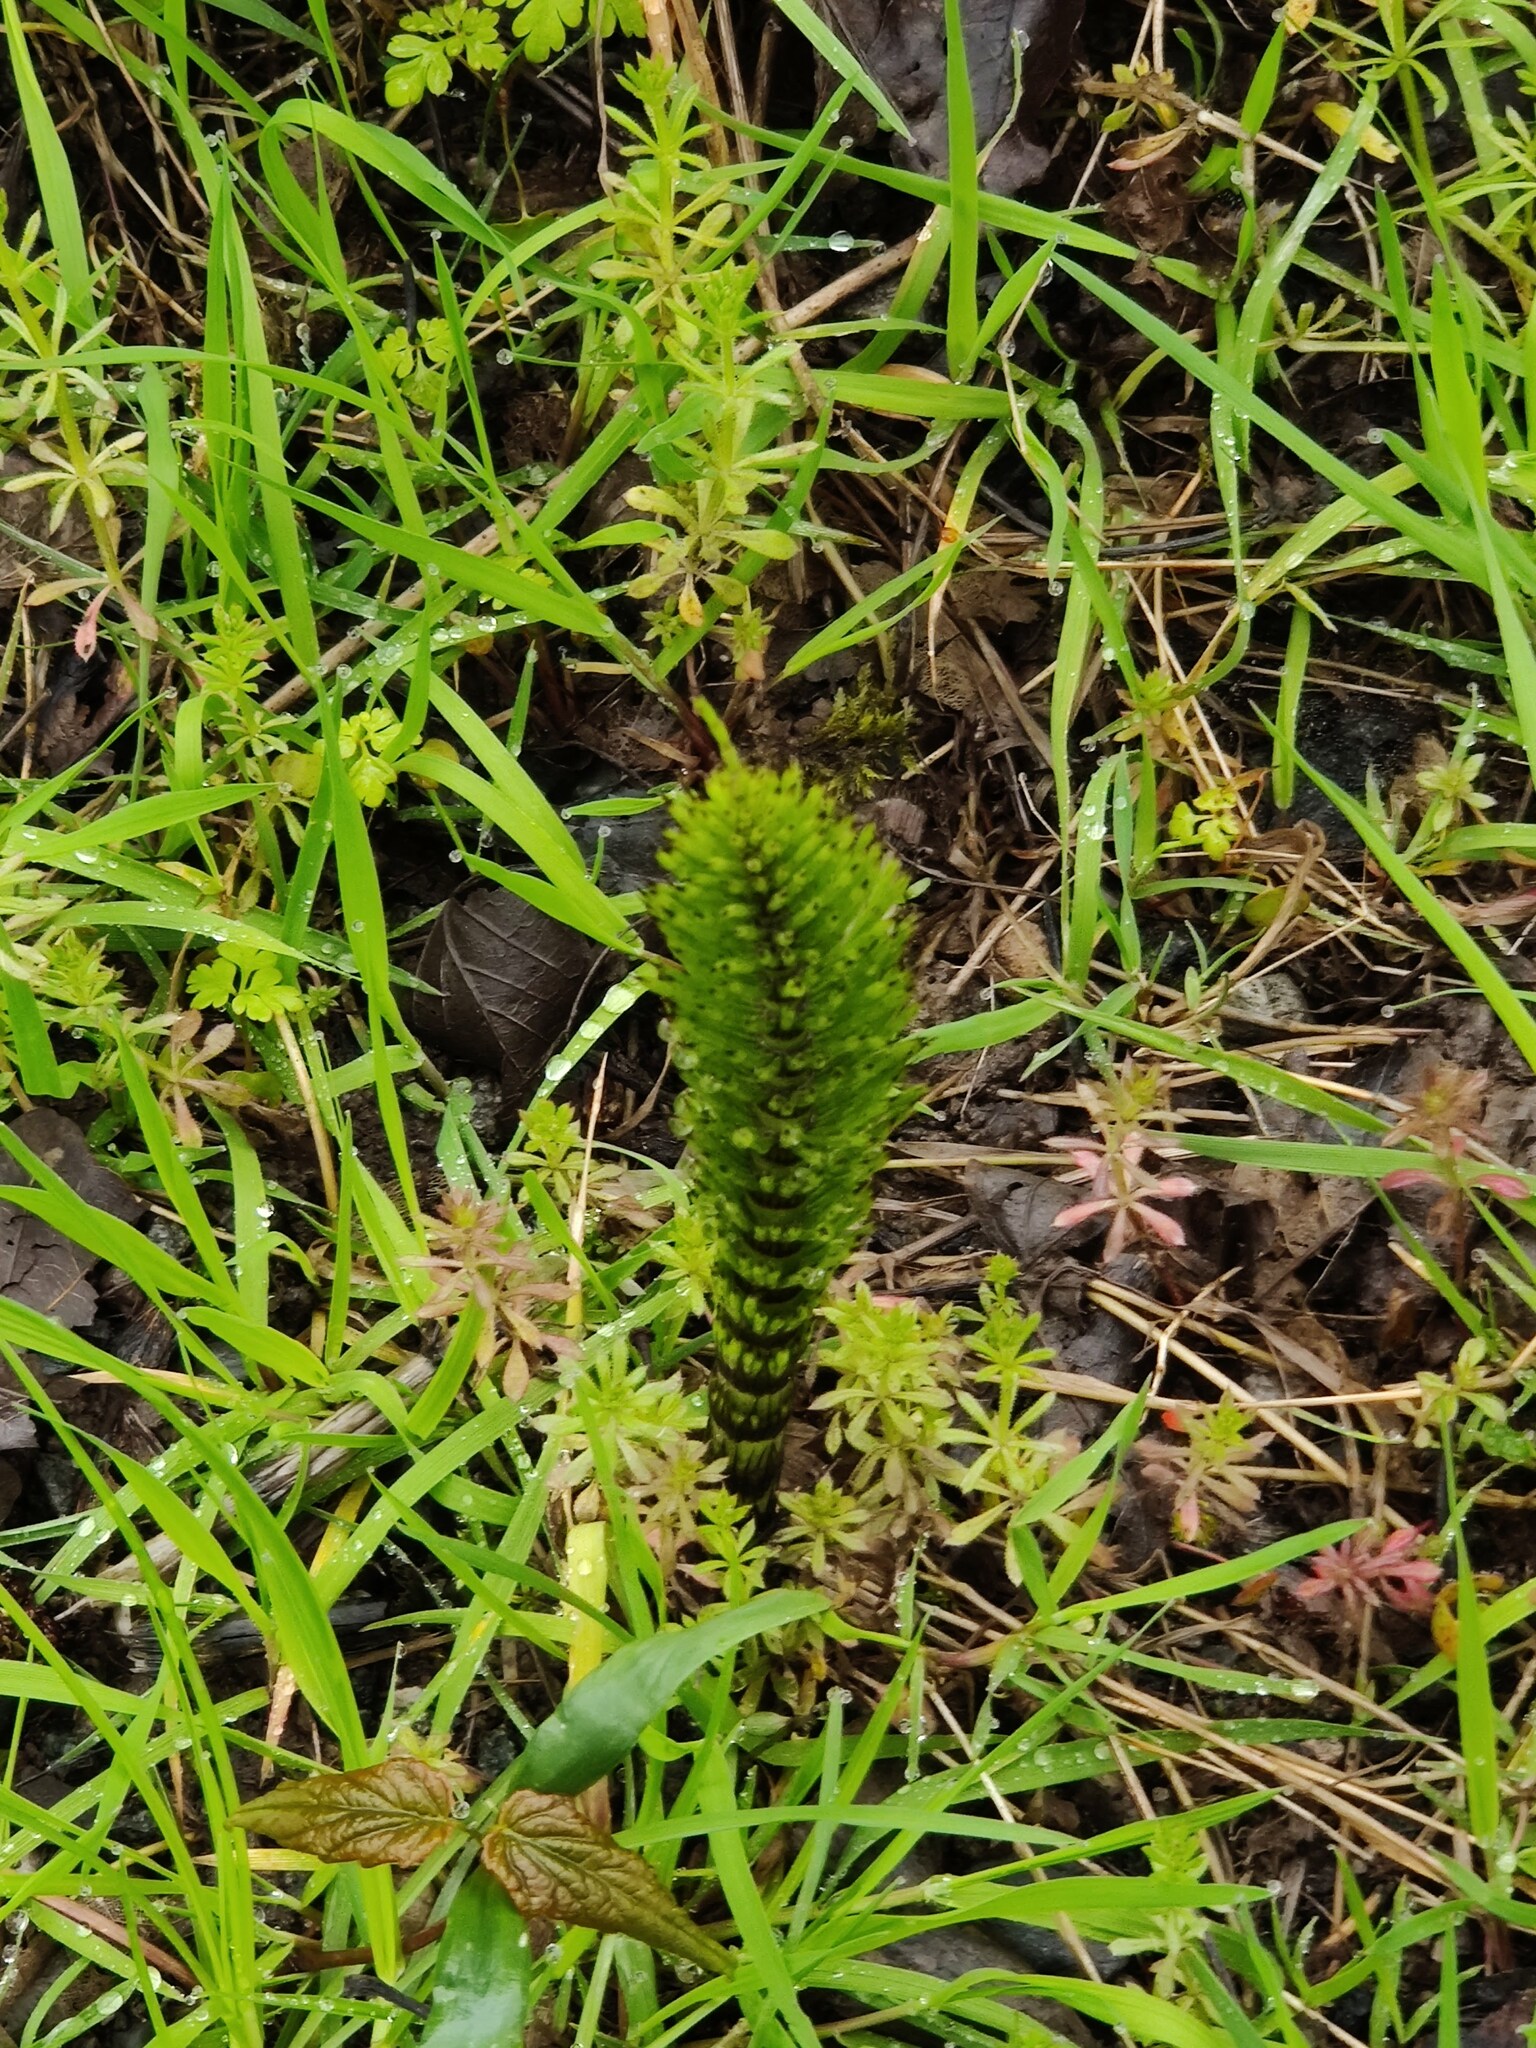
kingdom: Plantae
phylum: Tracheophyta
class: Polypodiopsida
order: Equisetales
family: Equisetaceae
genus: Equisetum
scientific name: Equisetum telmateia
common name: Great horsetail
